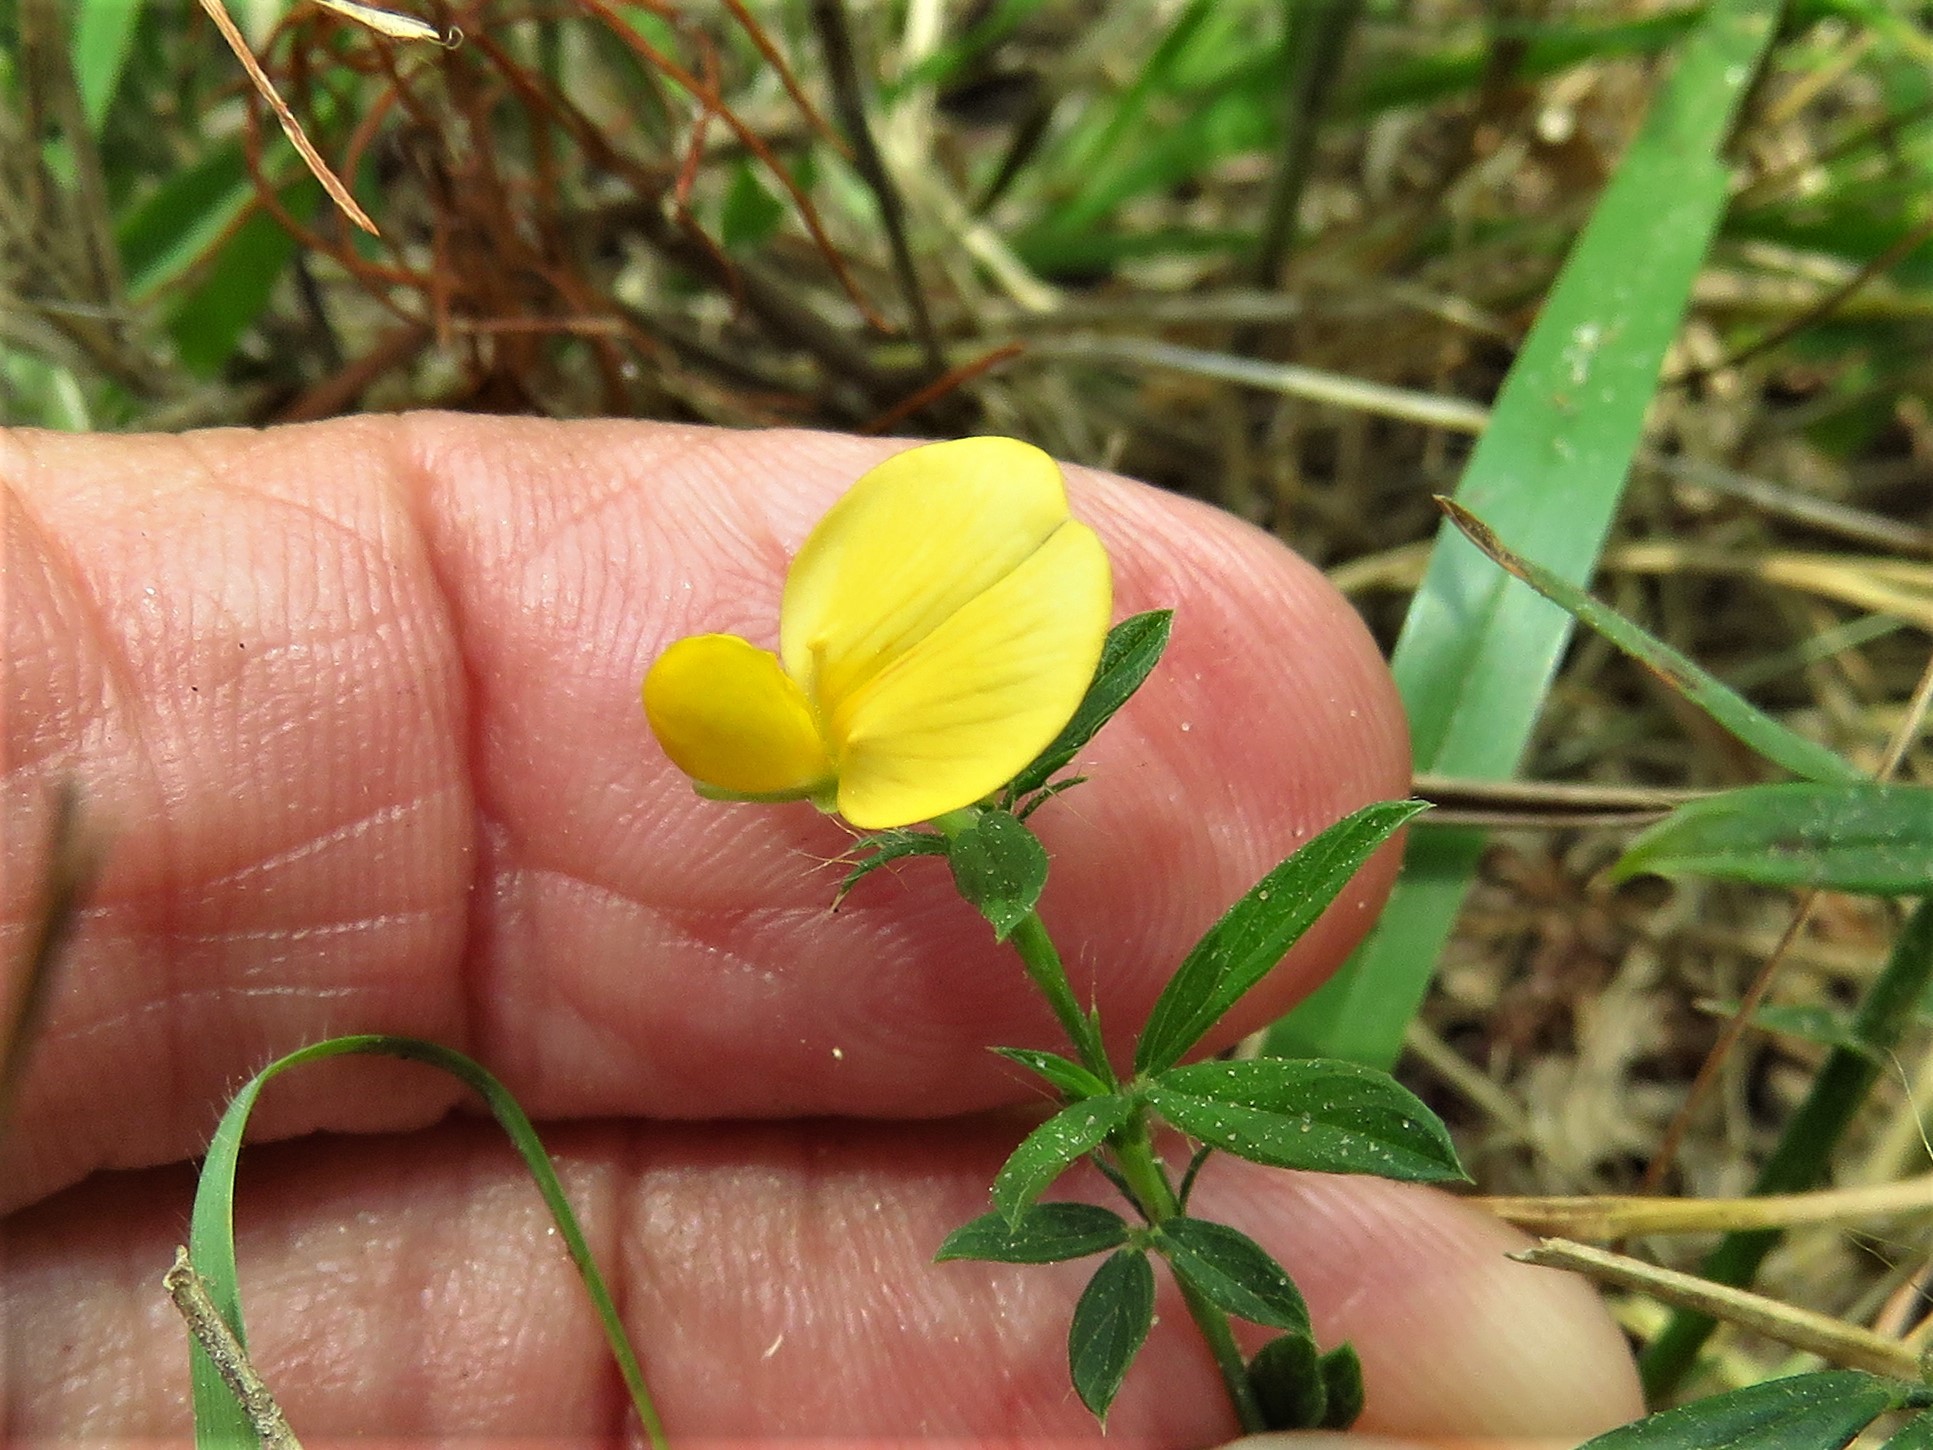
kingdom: Plantae
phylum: Tracheophyta
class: Magnoliopsida
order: Fabales
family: Fabaceae
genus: Stylosanthes
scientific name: Stylosanthes biflora
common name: Two-flower pencil-flower
